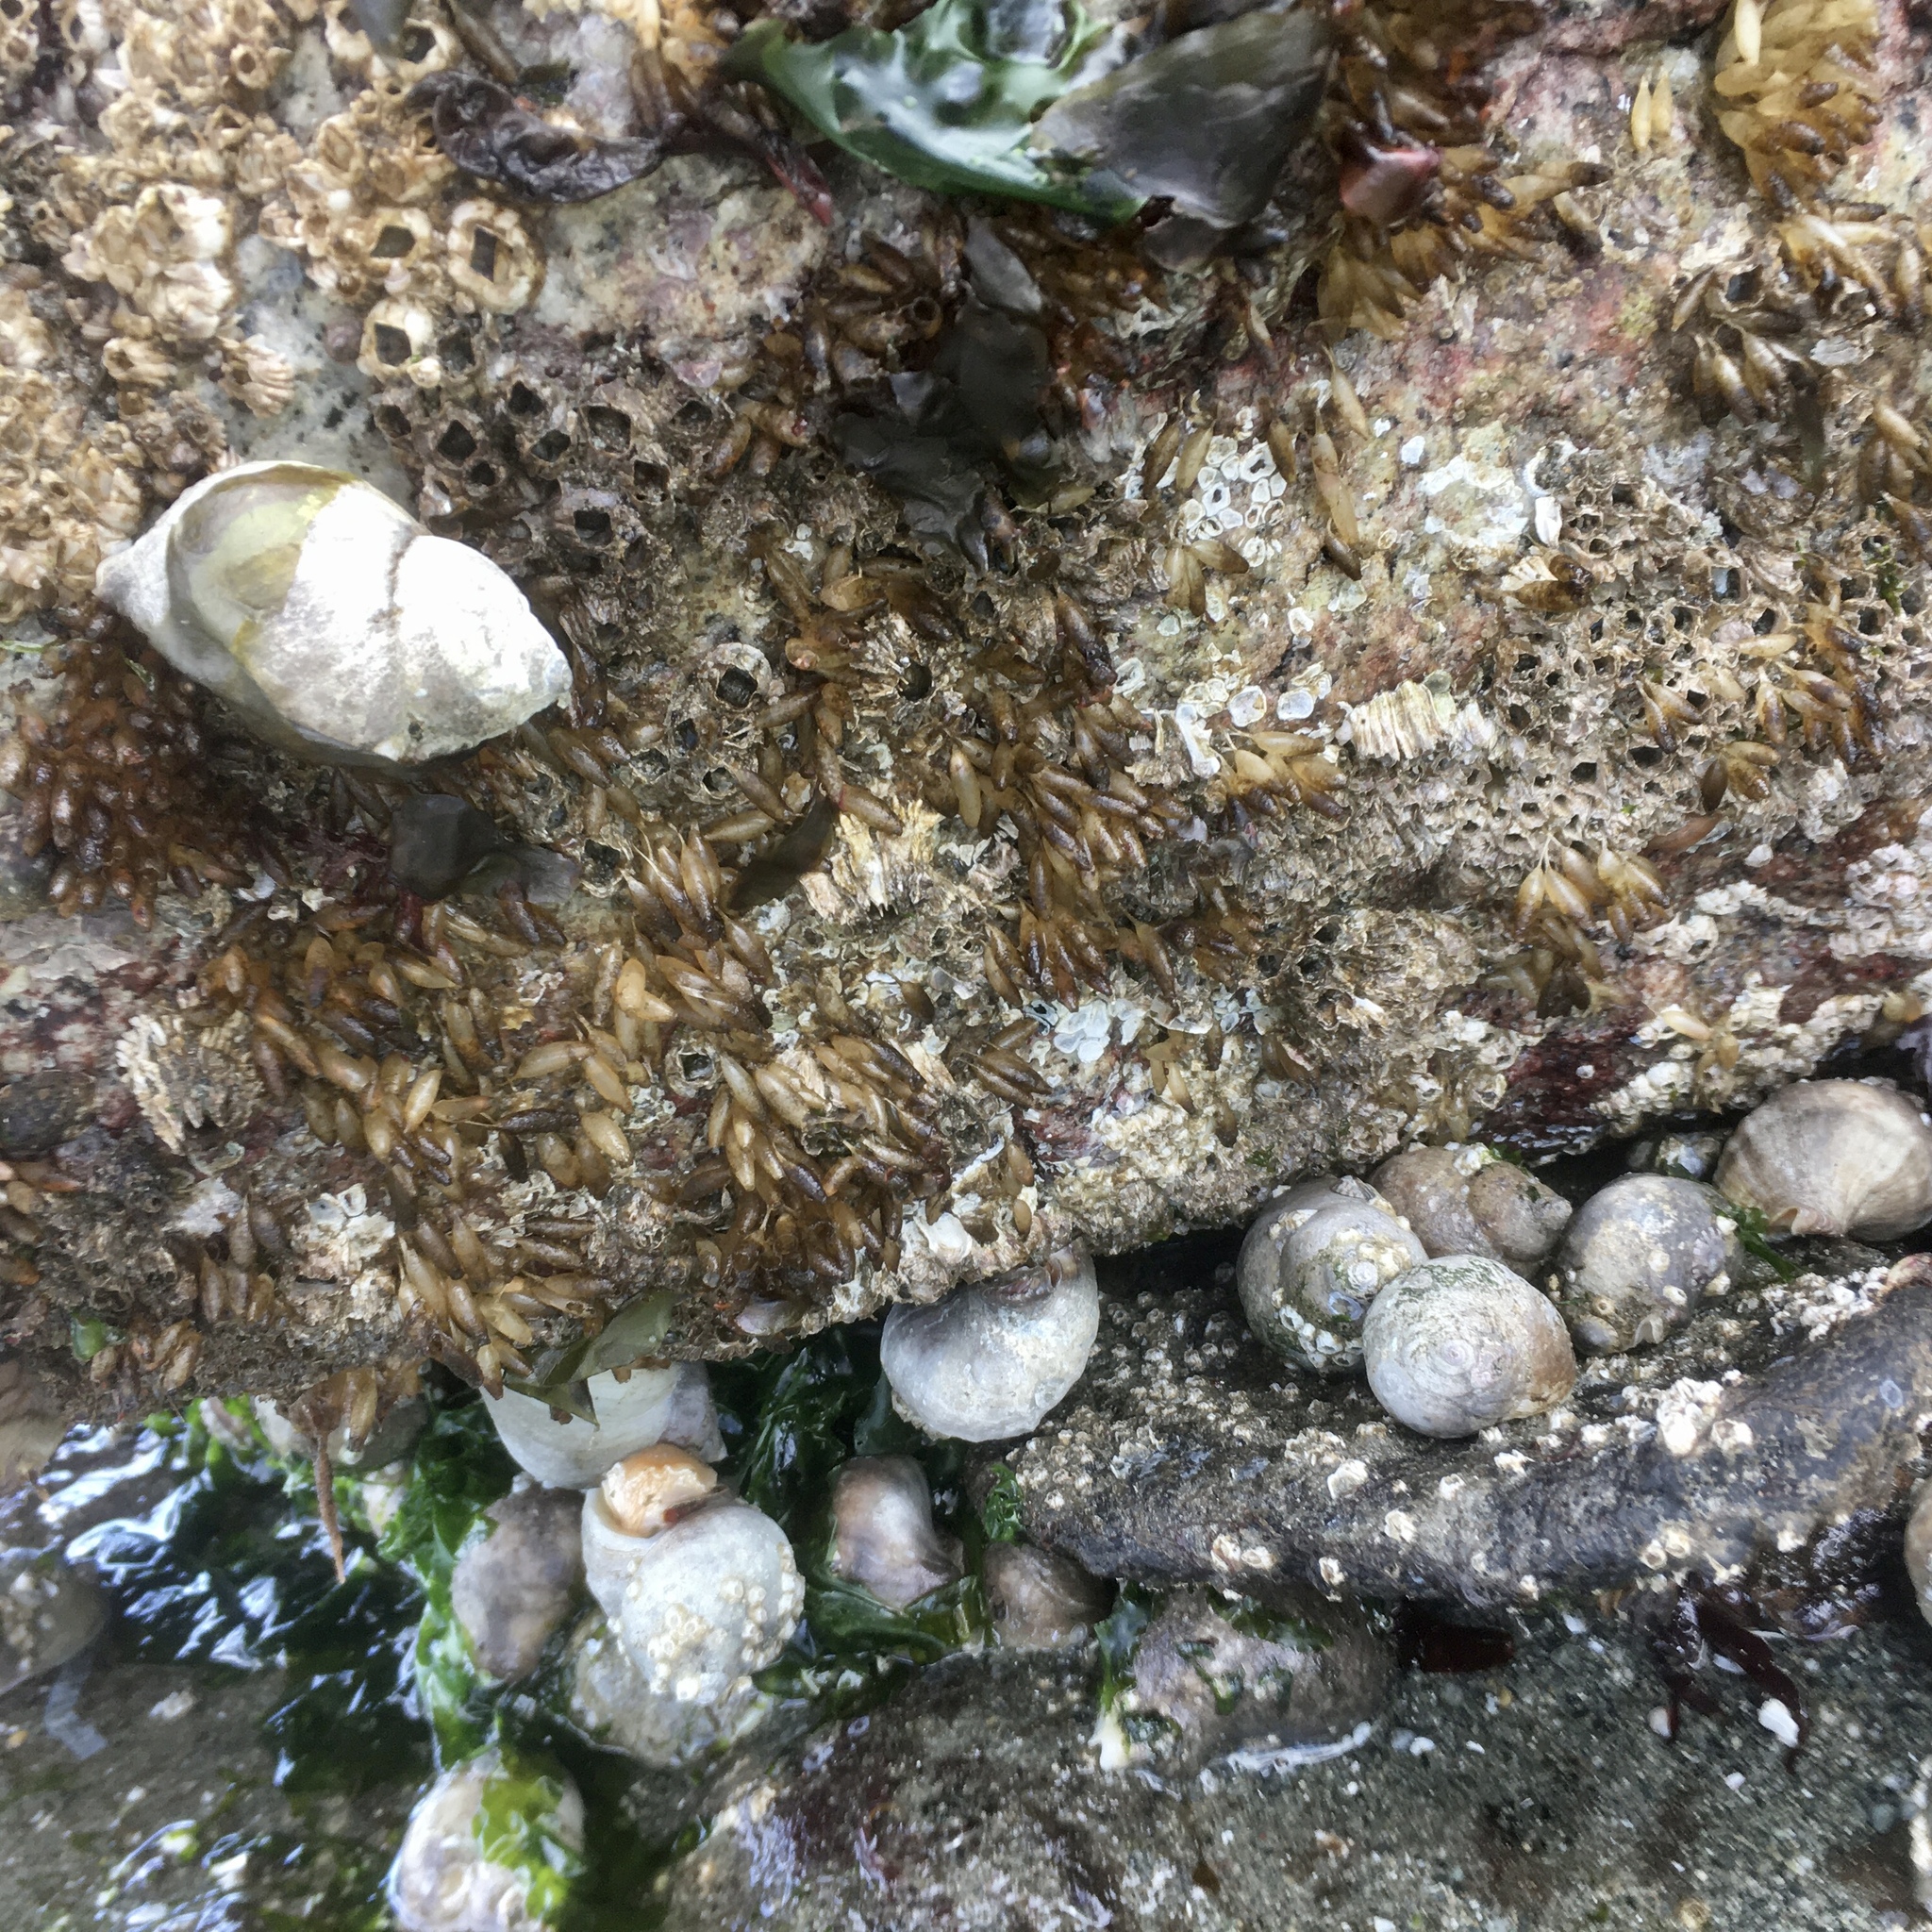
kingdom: Animalia
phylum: Mollusca
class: Gastropoda
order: Neogastropoda
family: Muricidae
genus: Nucella
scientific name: Nucella lamellosa
